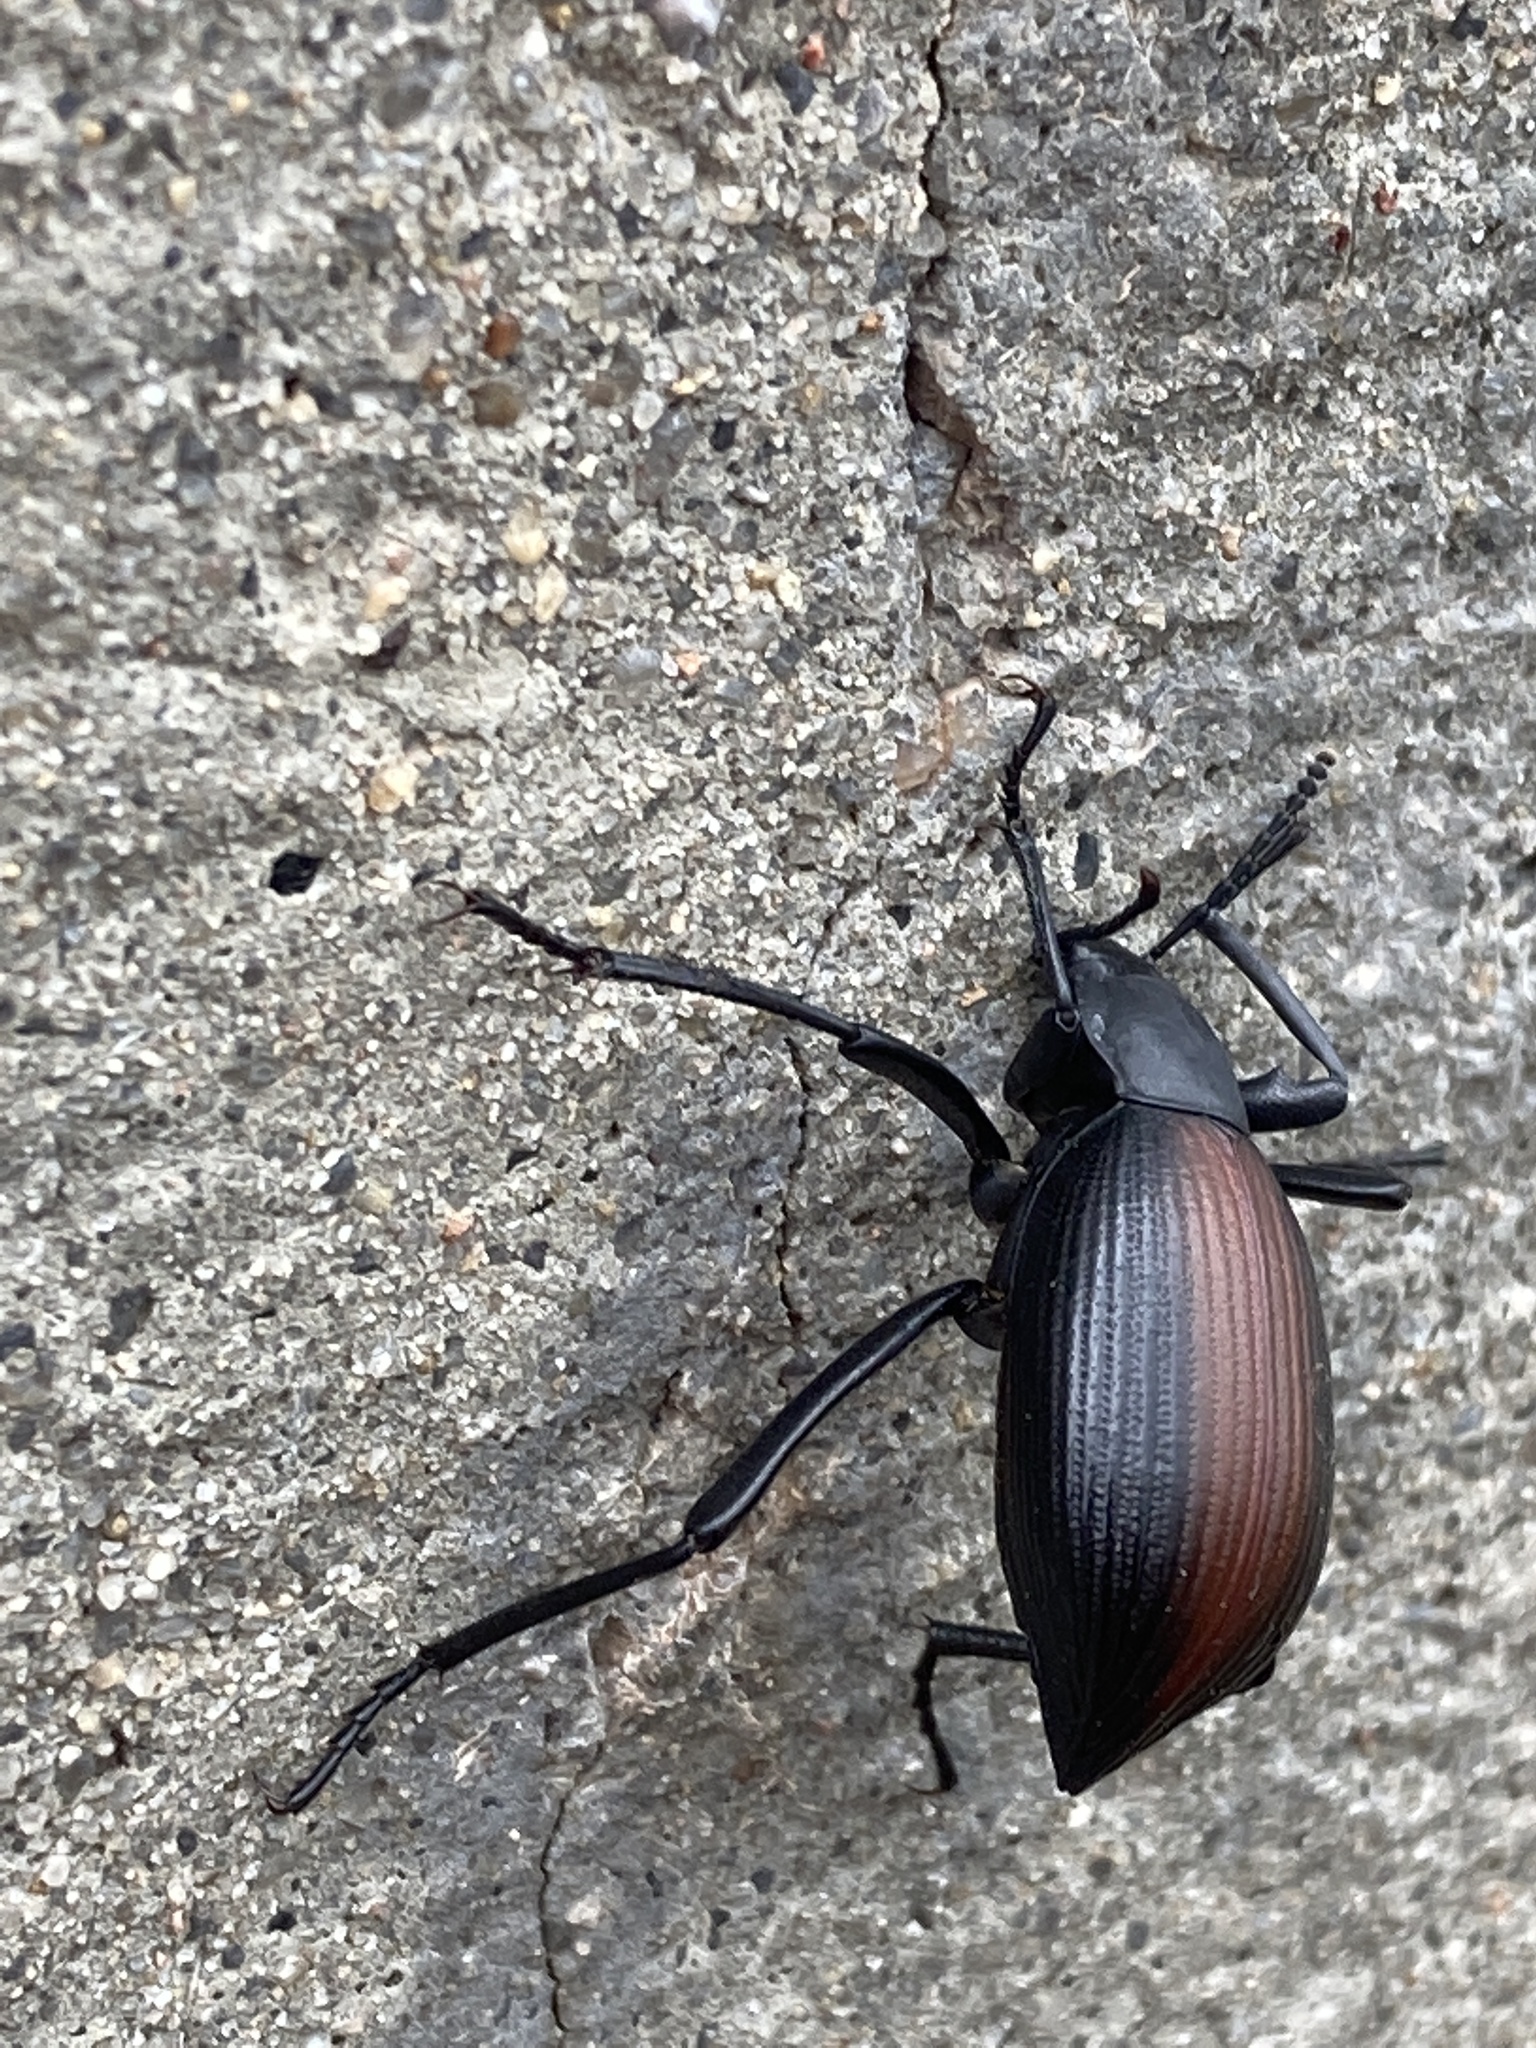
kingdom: Animalia
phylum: Arthropoda
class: Insecta
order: Coleoptera
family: Tenebrionidae
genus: Eleodes
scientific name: Eleodes hispilabris
